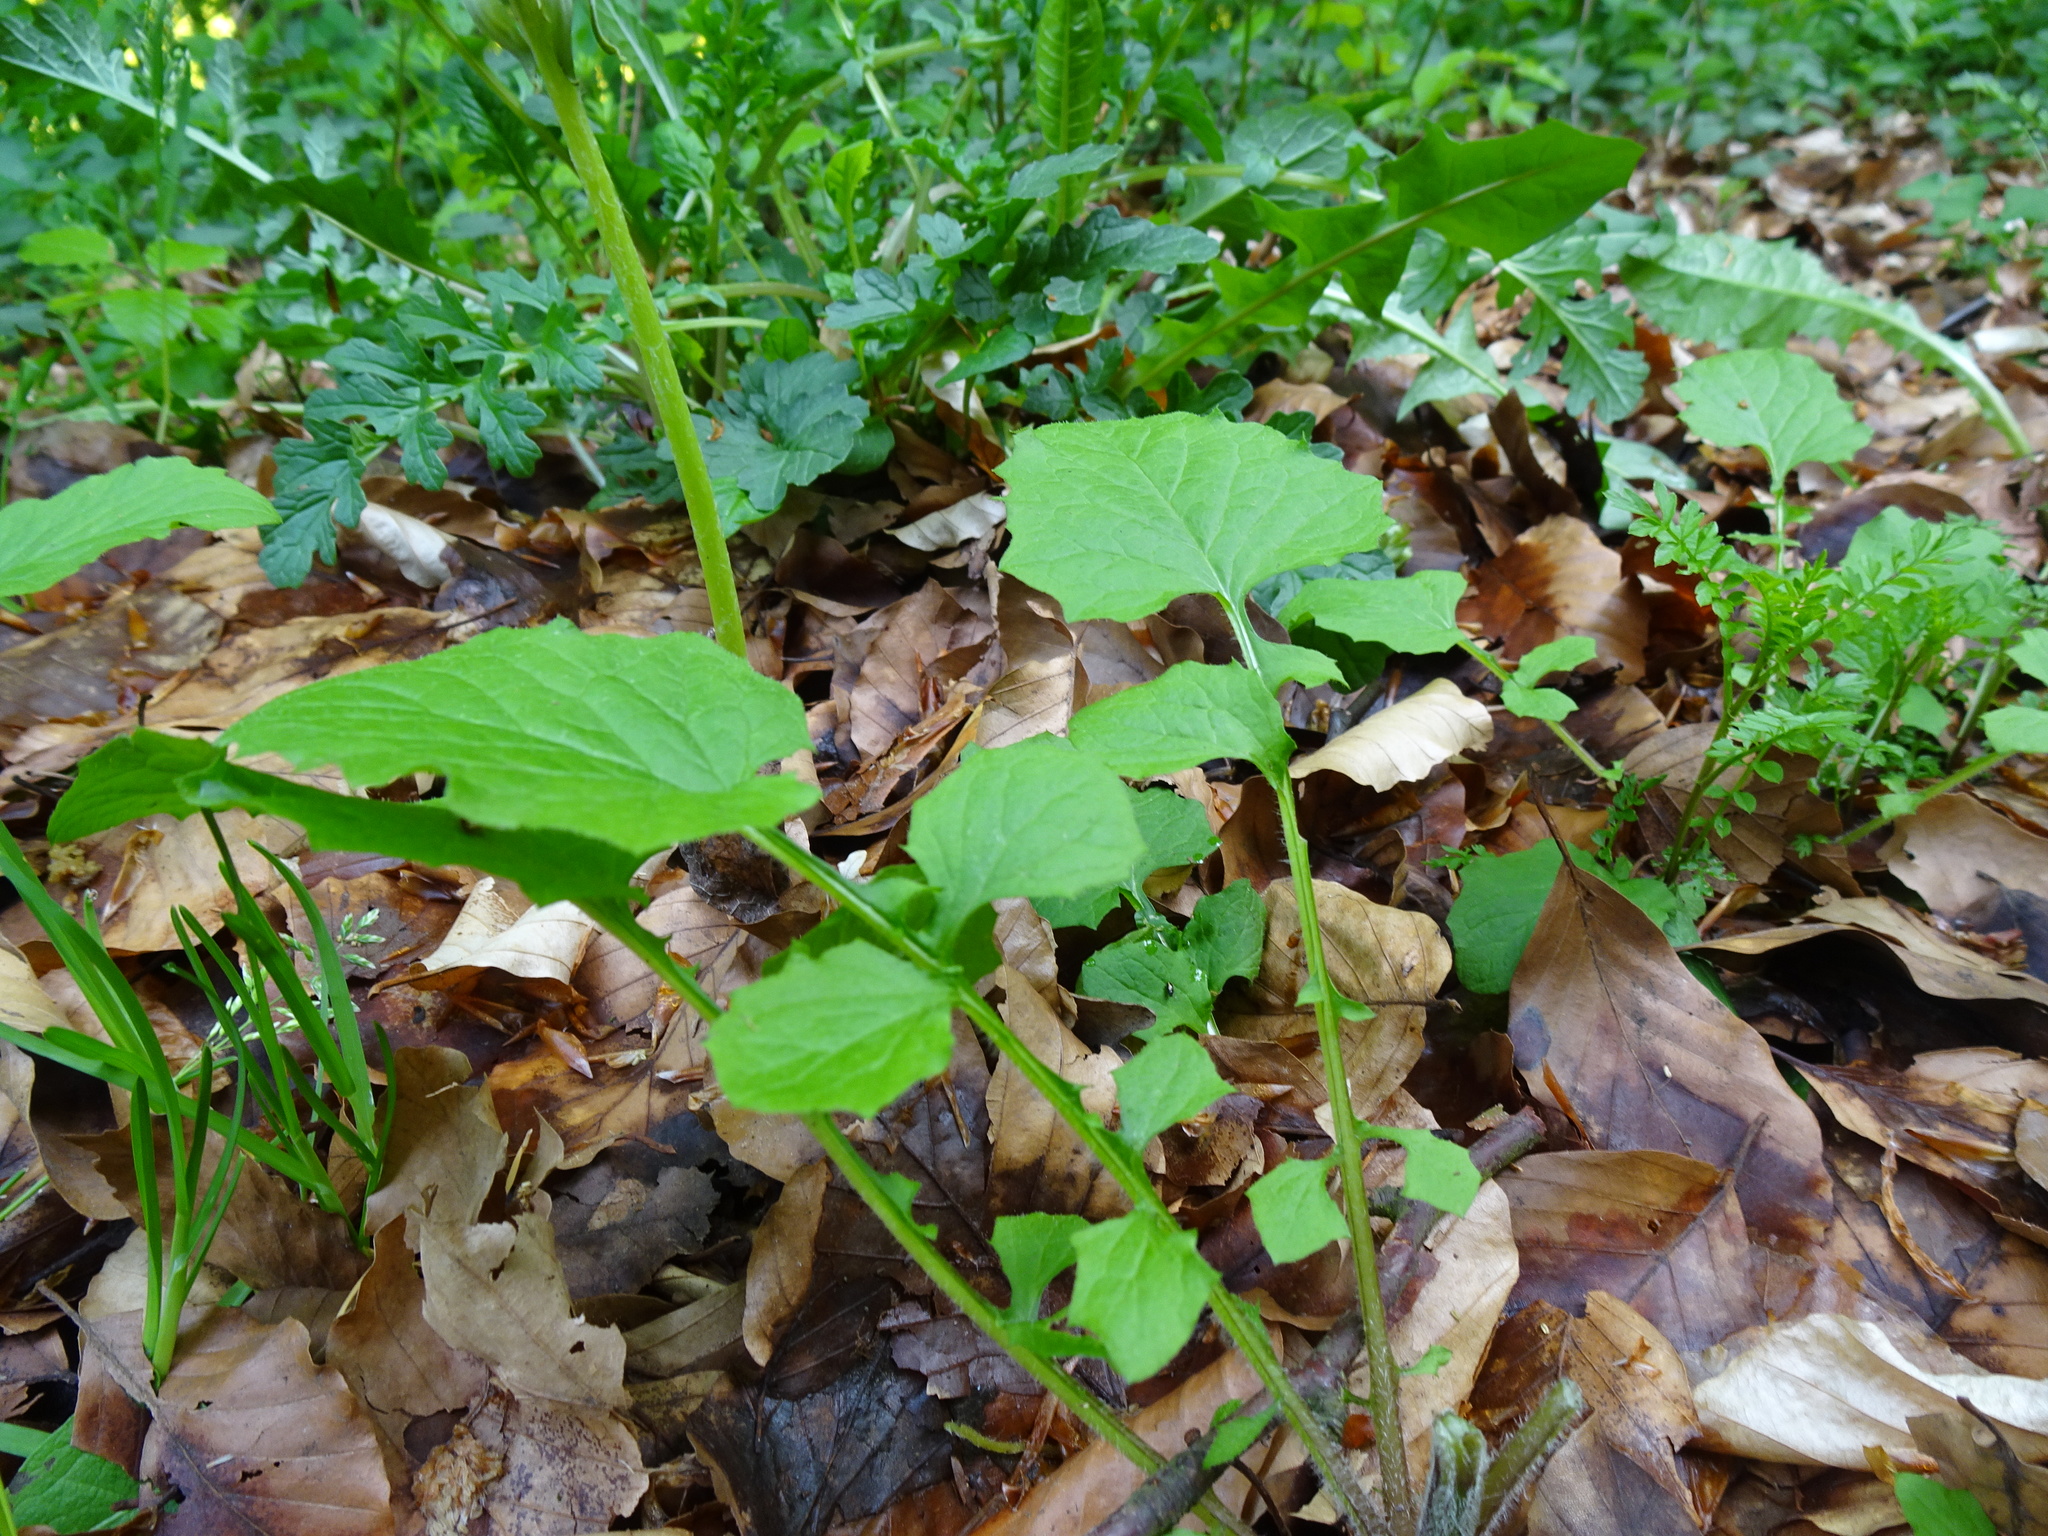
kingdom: Plantae
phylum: Tracheophyta
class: Magnoliopsida
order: Asterales
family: Asteraceae
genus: Lapsana
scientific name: Lapsana communis
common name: Nipplewort
